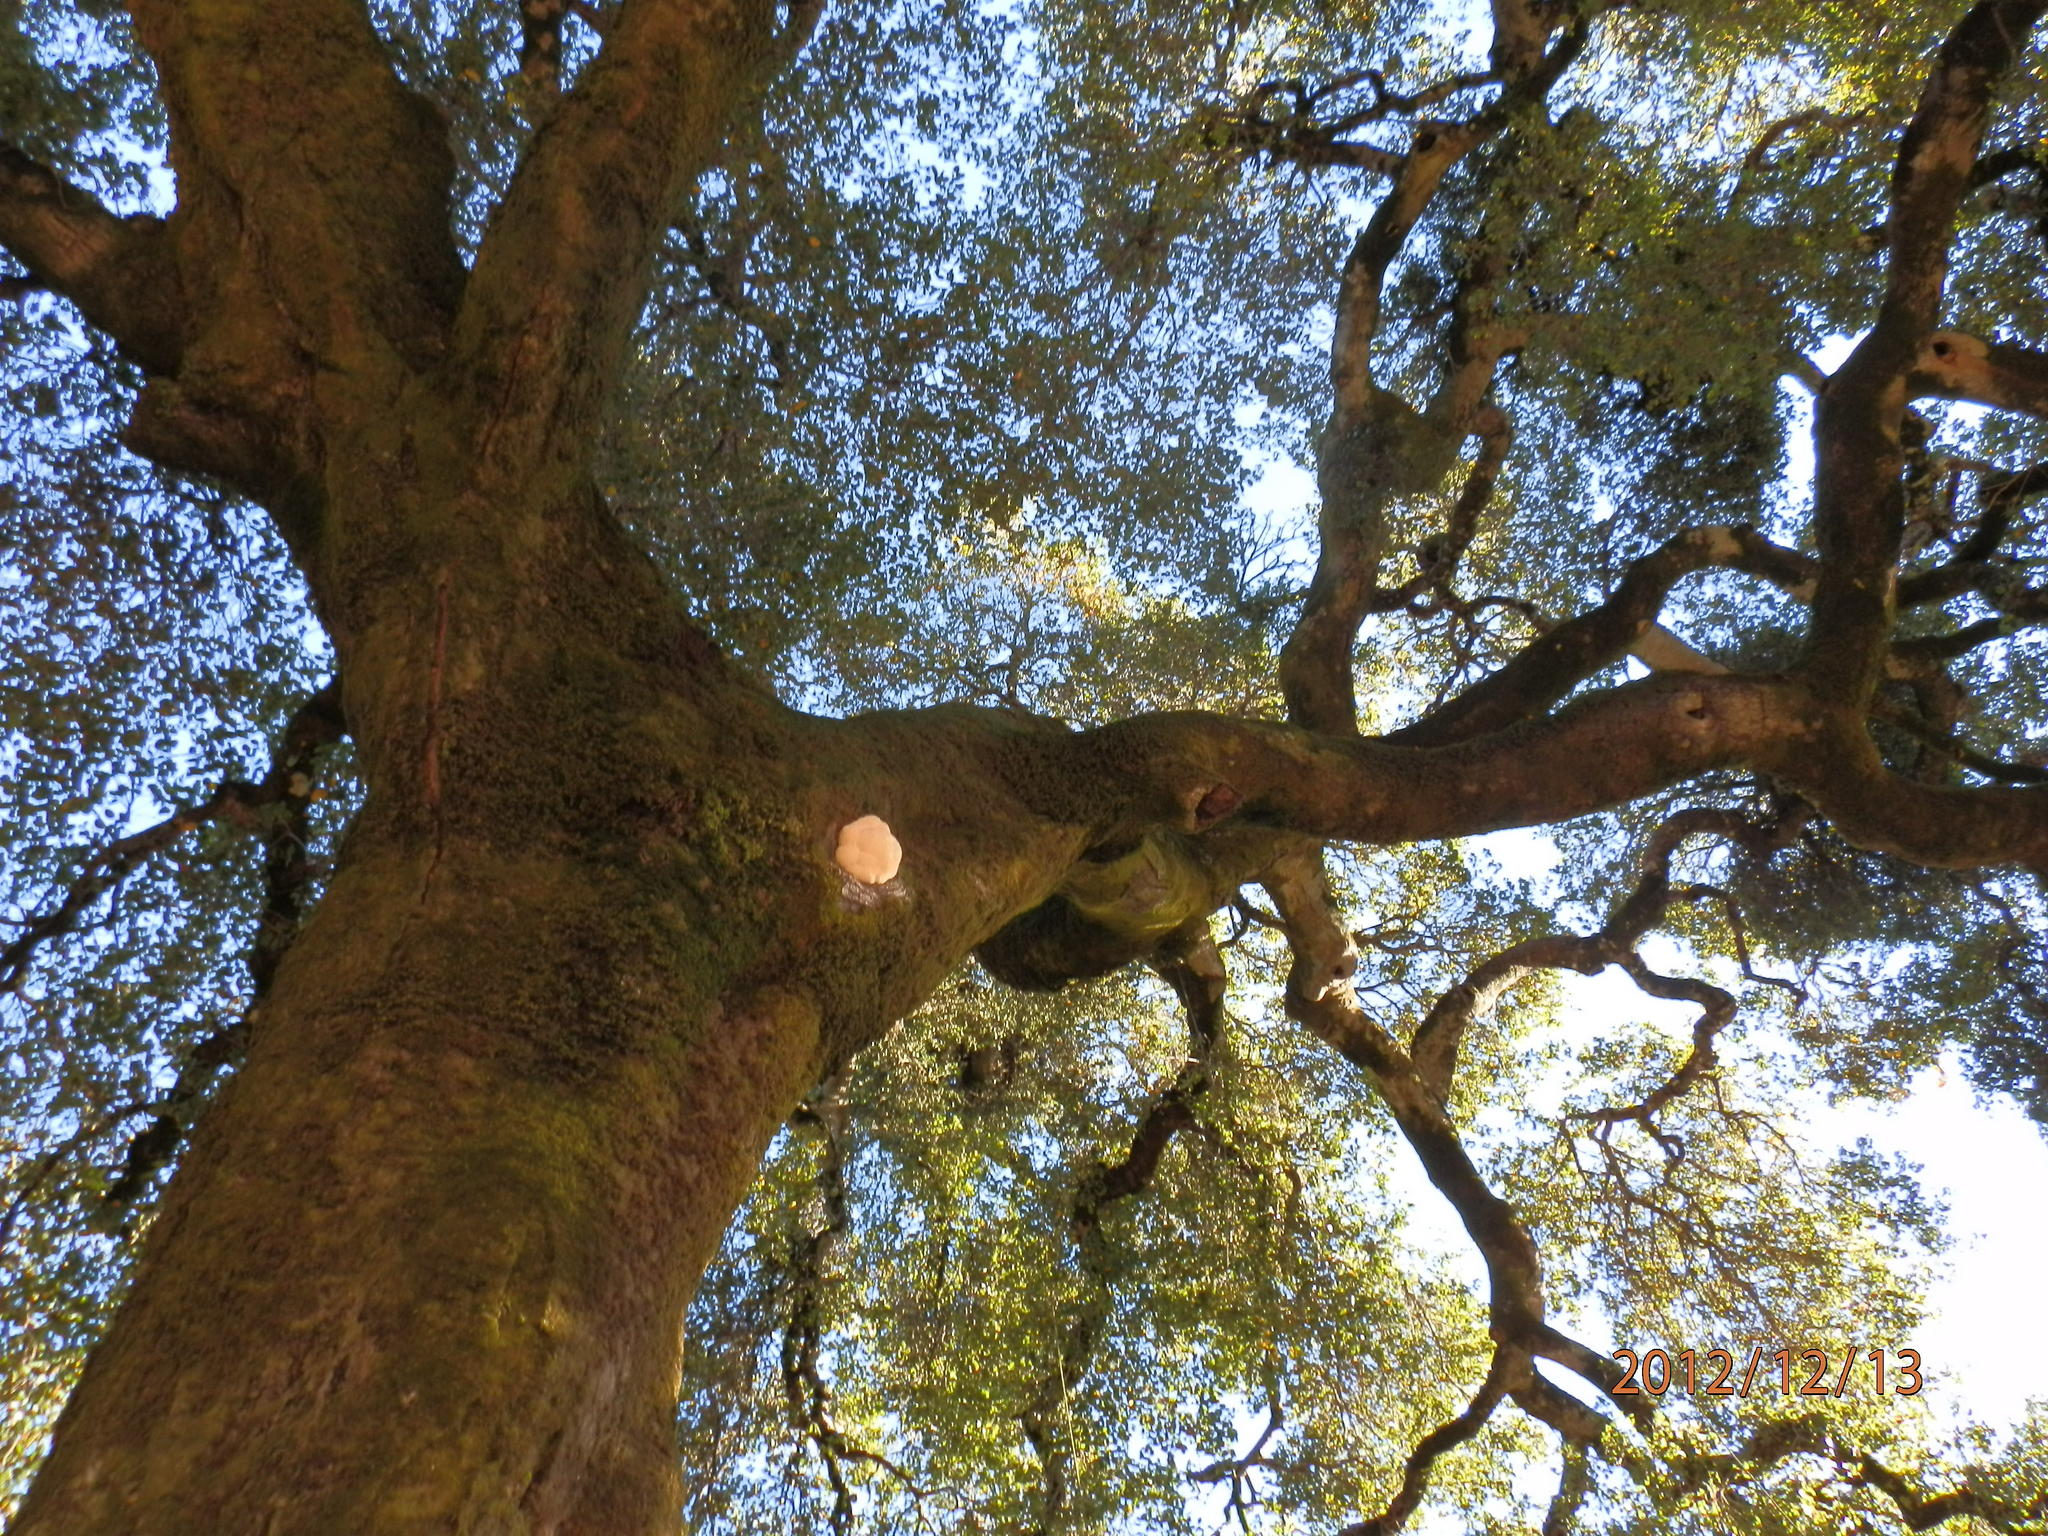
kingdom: Fungi
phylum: Basidiomycota
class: Agaricomycetes
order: Russulales
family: Hericiaceae
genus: Hericium
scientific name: Hericium erinaceus
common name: Bearded tooth
